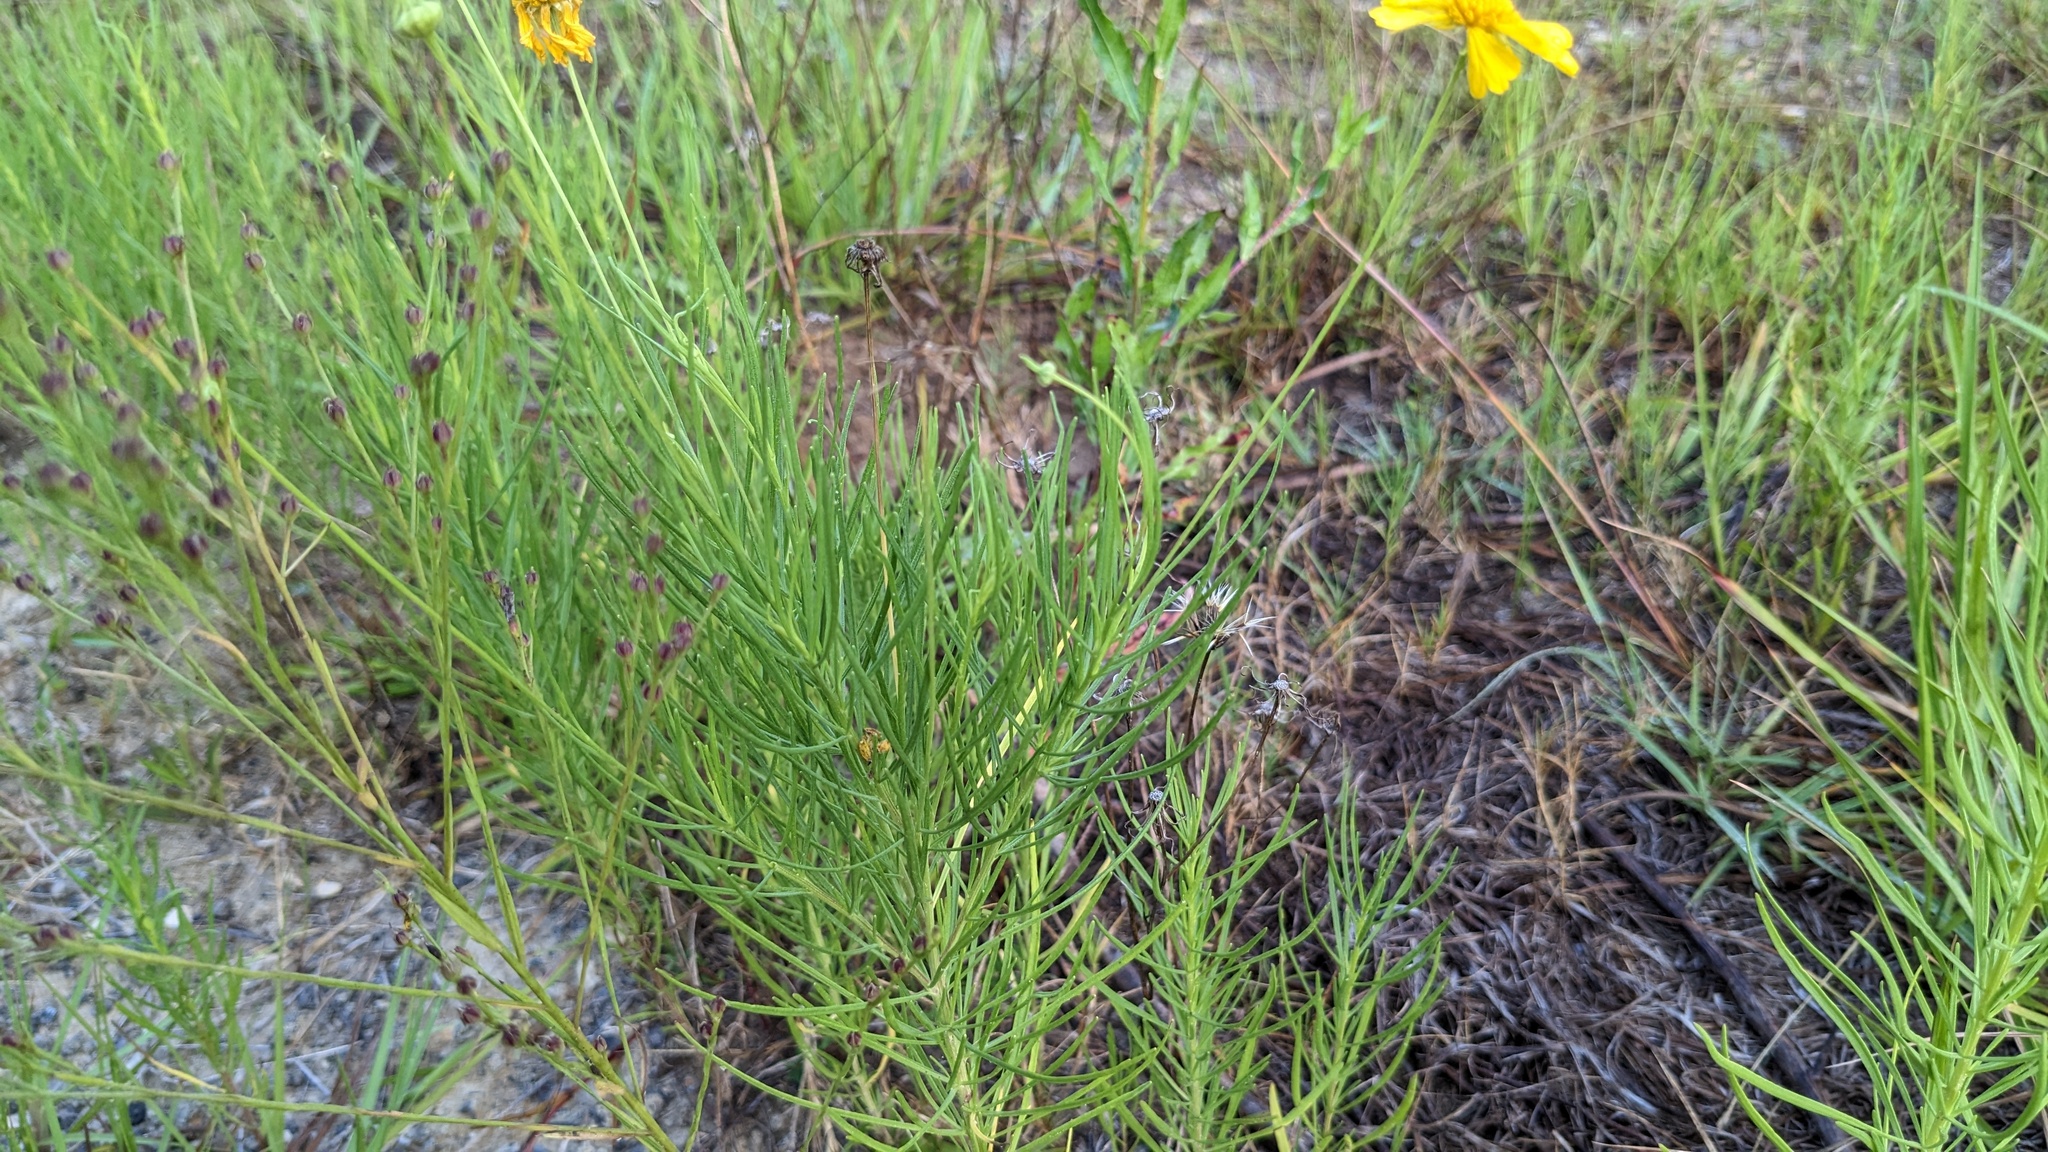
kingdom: Plantae
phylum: Tracheophyta
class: Magnoliopsida
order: Asterales
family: Asteraceae
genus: Helenium
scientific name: Helenium amarum
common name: Bitter sneezeweed
